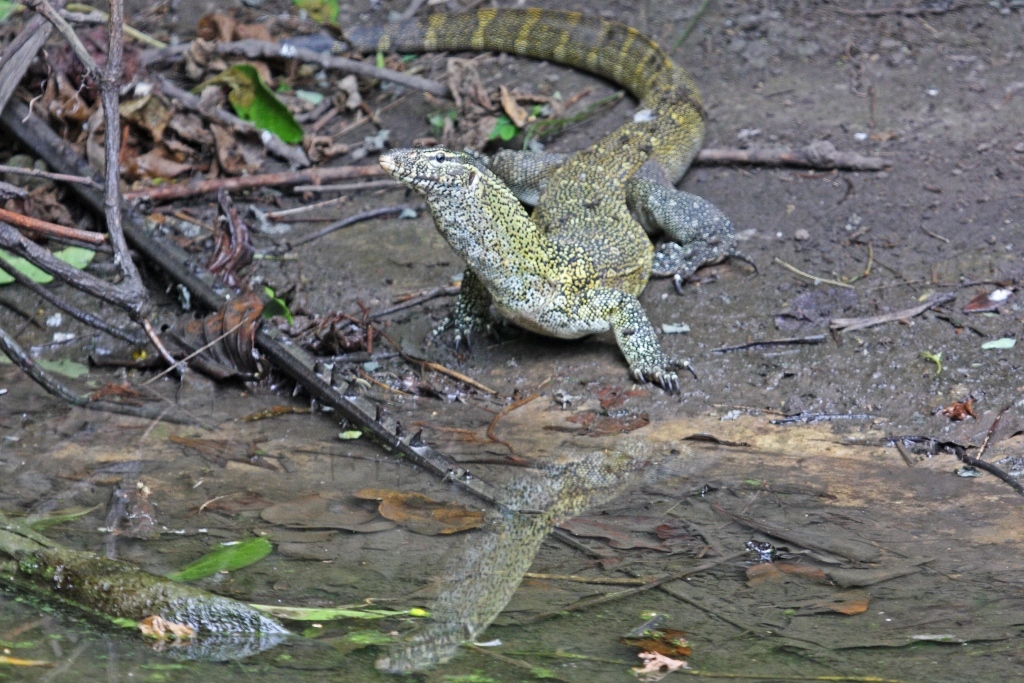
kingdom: Animalia
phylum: Chordata
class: Squamata
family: Varanidae
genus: Varanus
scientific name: Varanus niloticus
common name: Nile monitor
